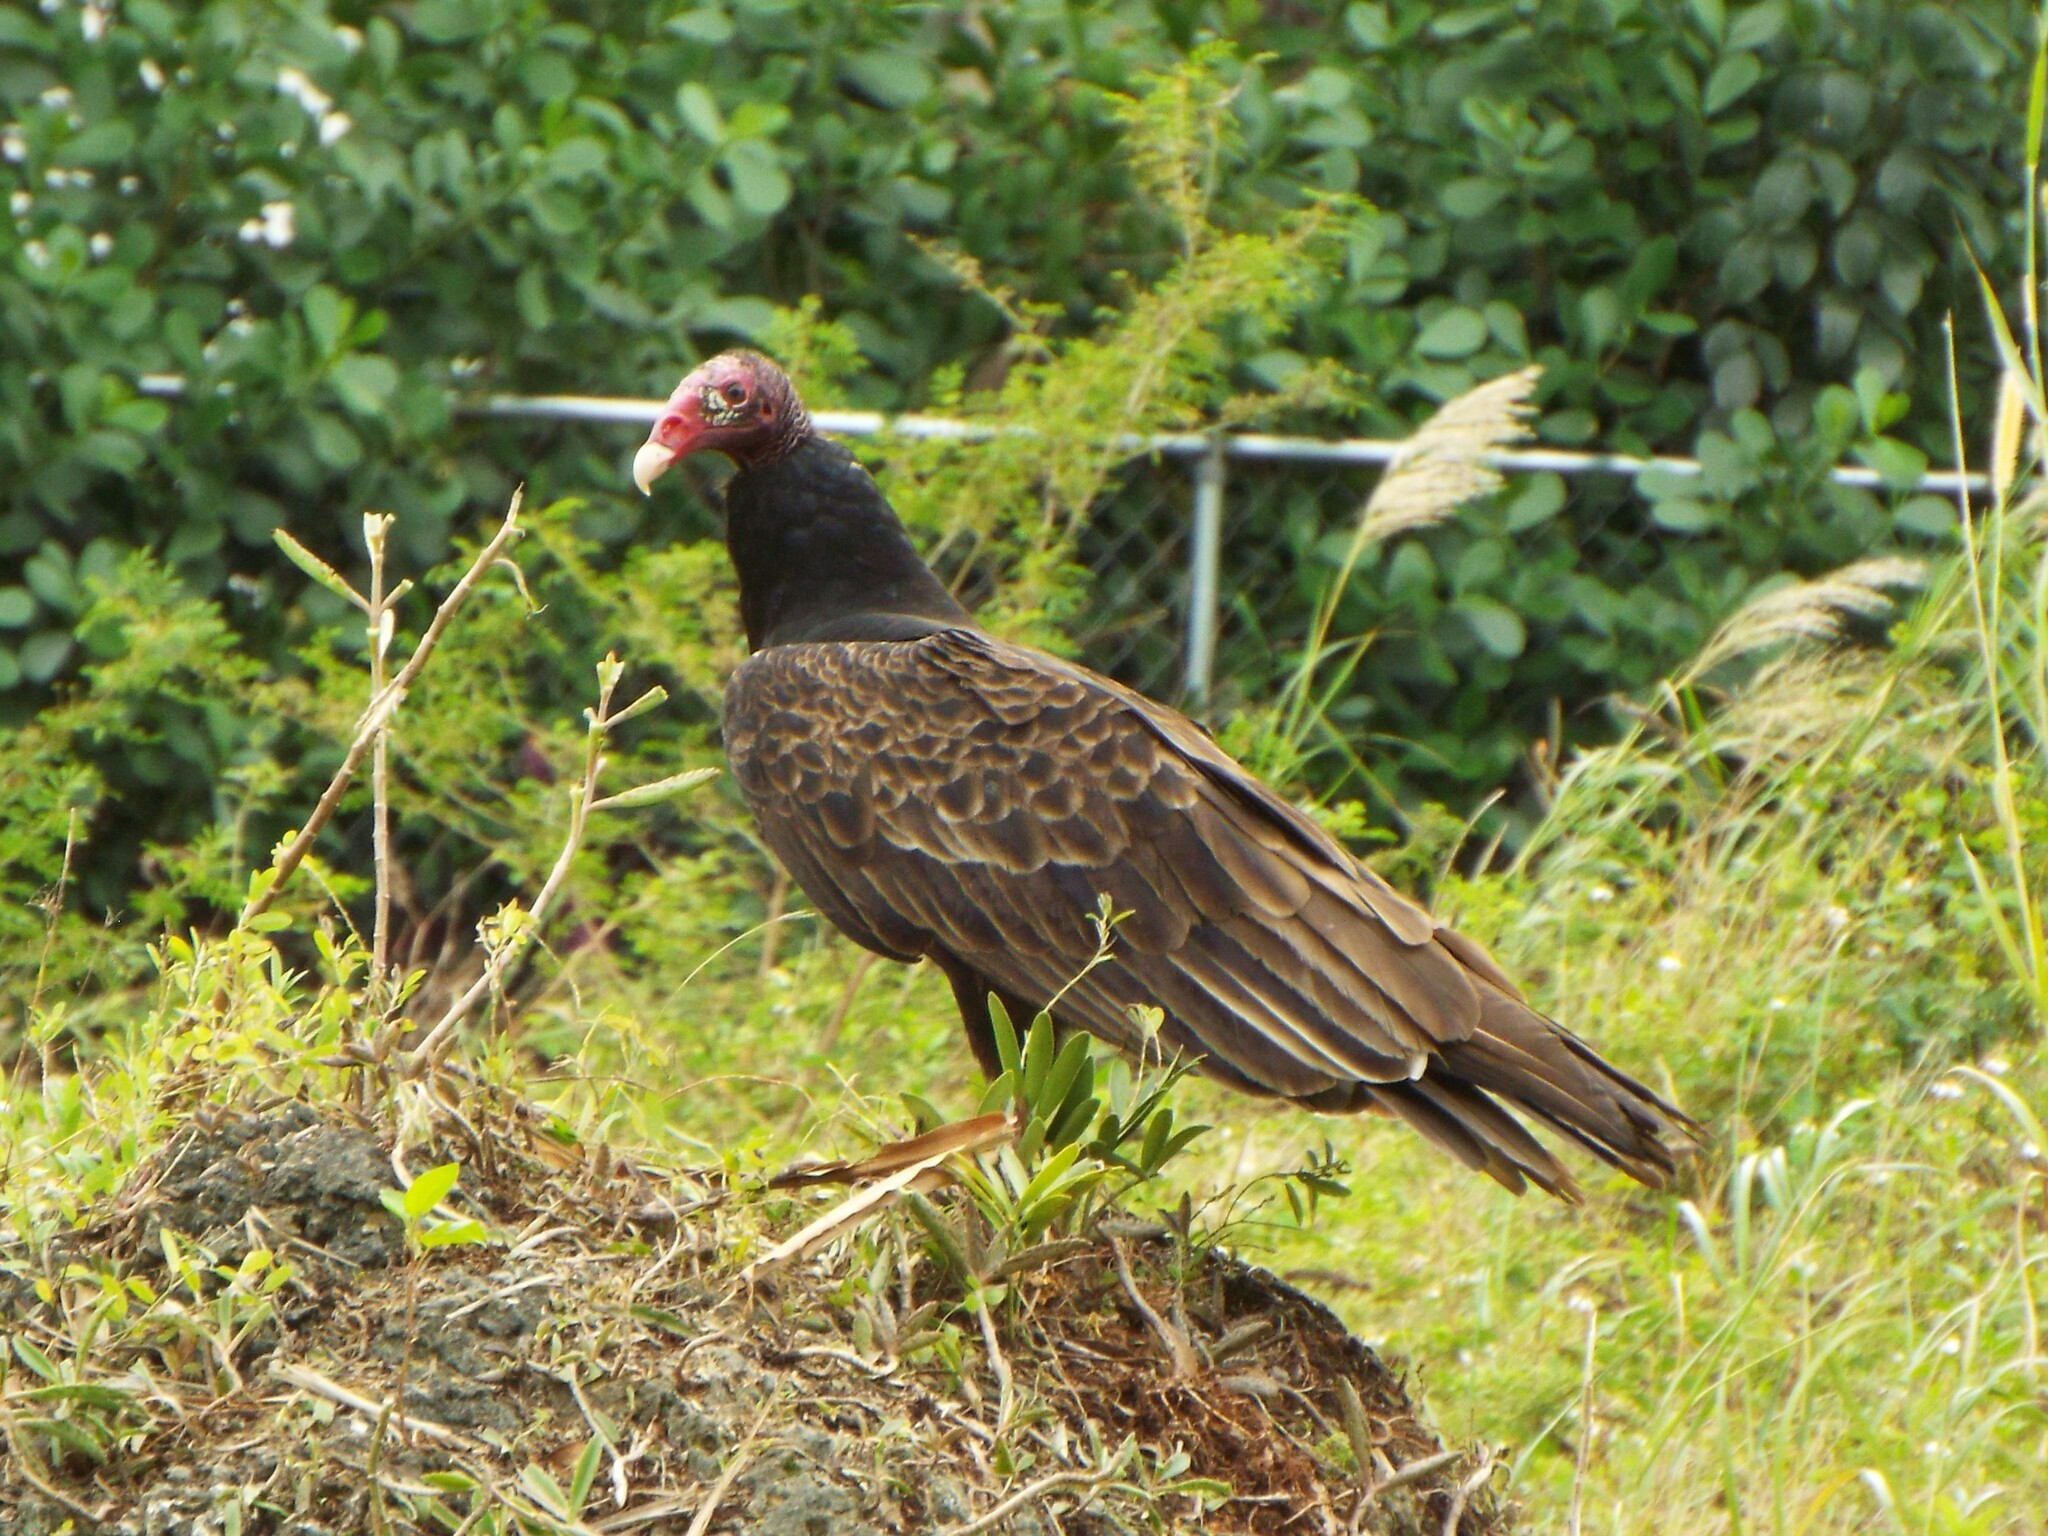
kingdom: Animalia
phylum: Chordata
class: Aves
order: Accipitriformes
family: Cathartidae
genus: Cathartes
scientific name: Cathartes aura
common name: Turkey vulture
